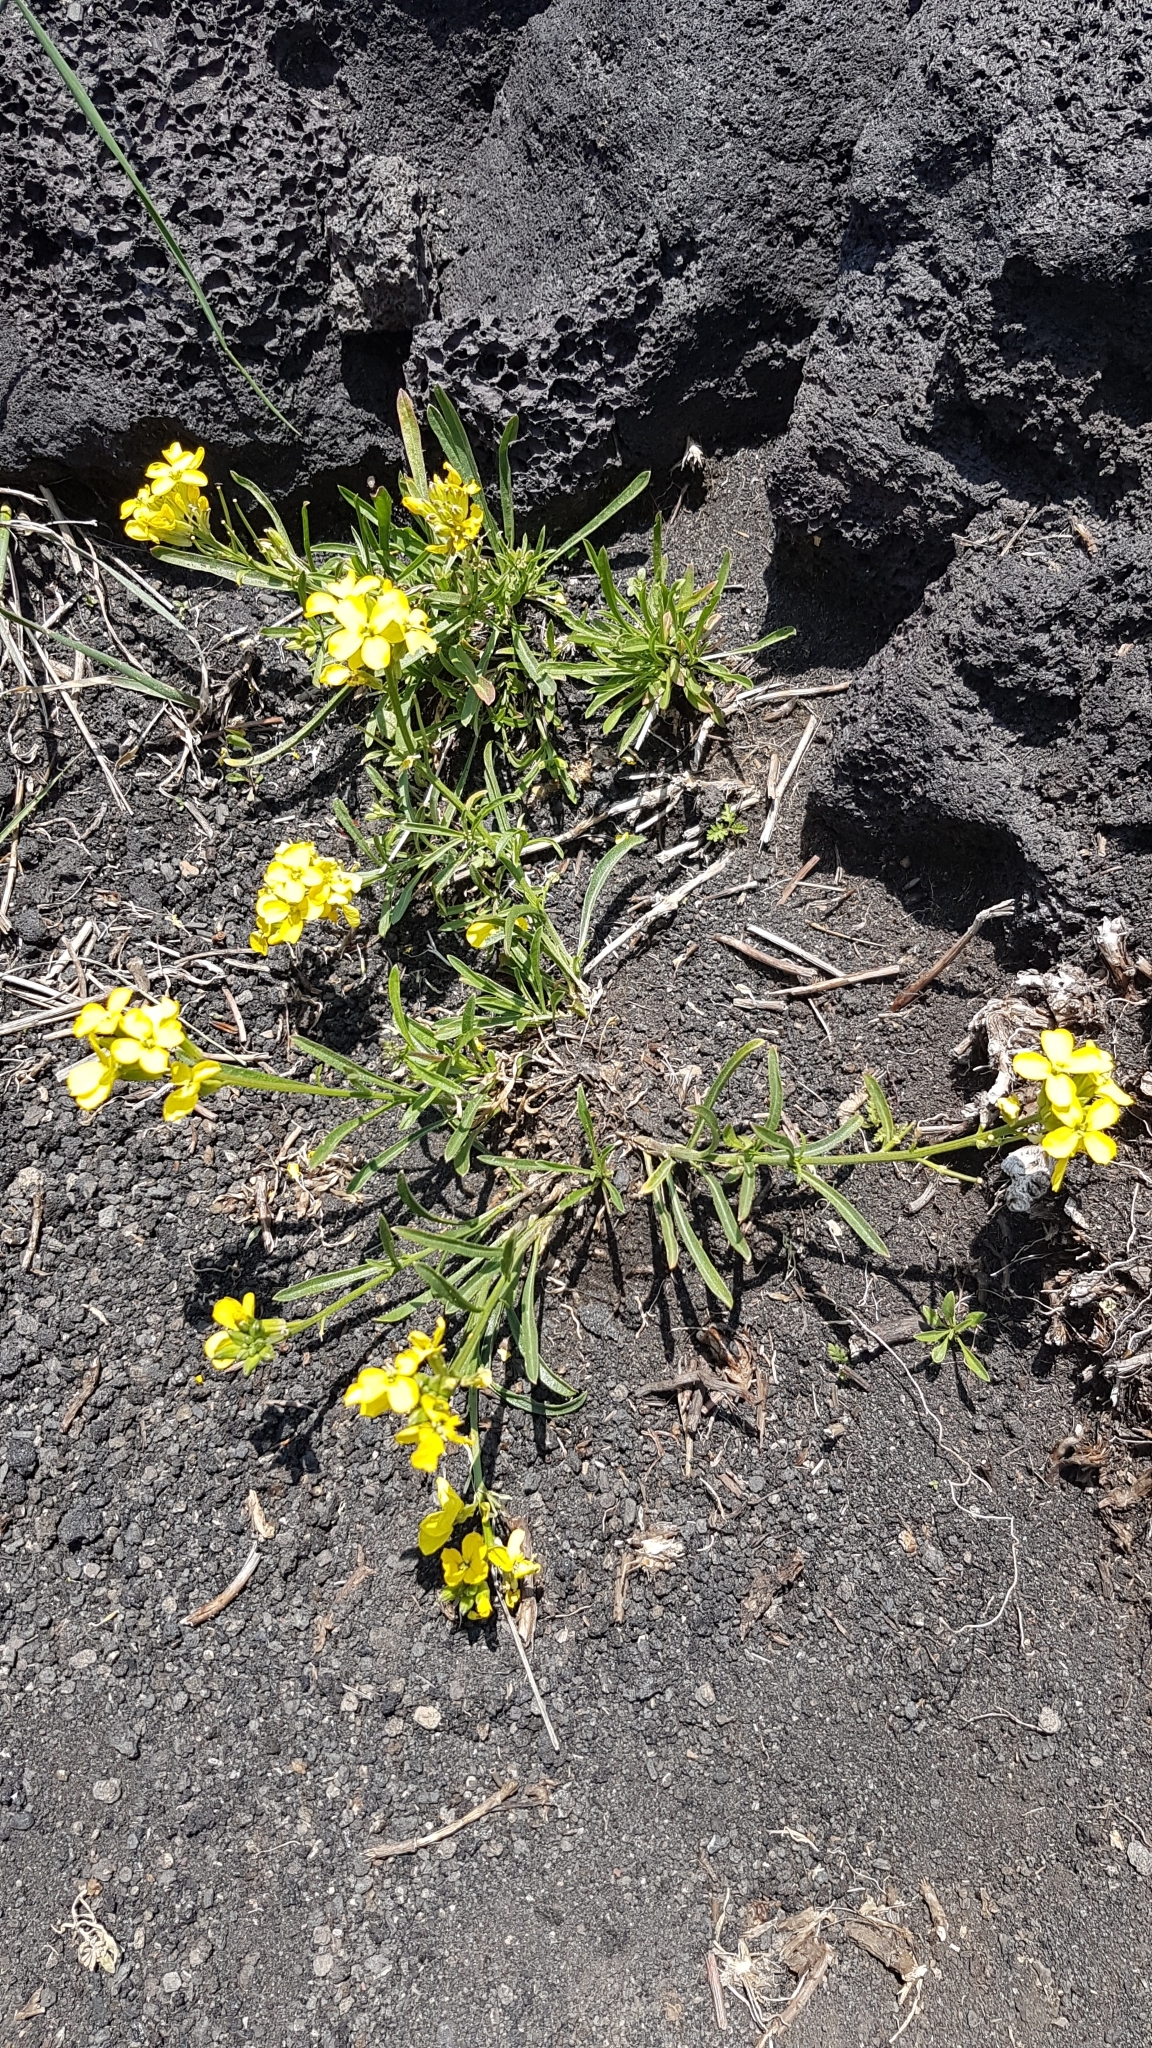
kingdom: Plantae
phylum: Tracheophyta
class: Magnoliopsida
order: Brassicales
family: Brassicaceae
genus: Erysimum
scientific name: Erysimum bonannianum
